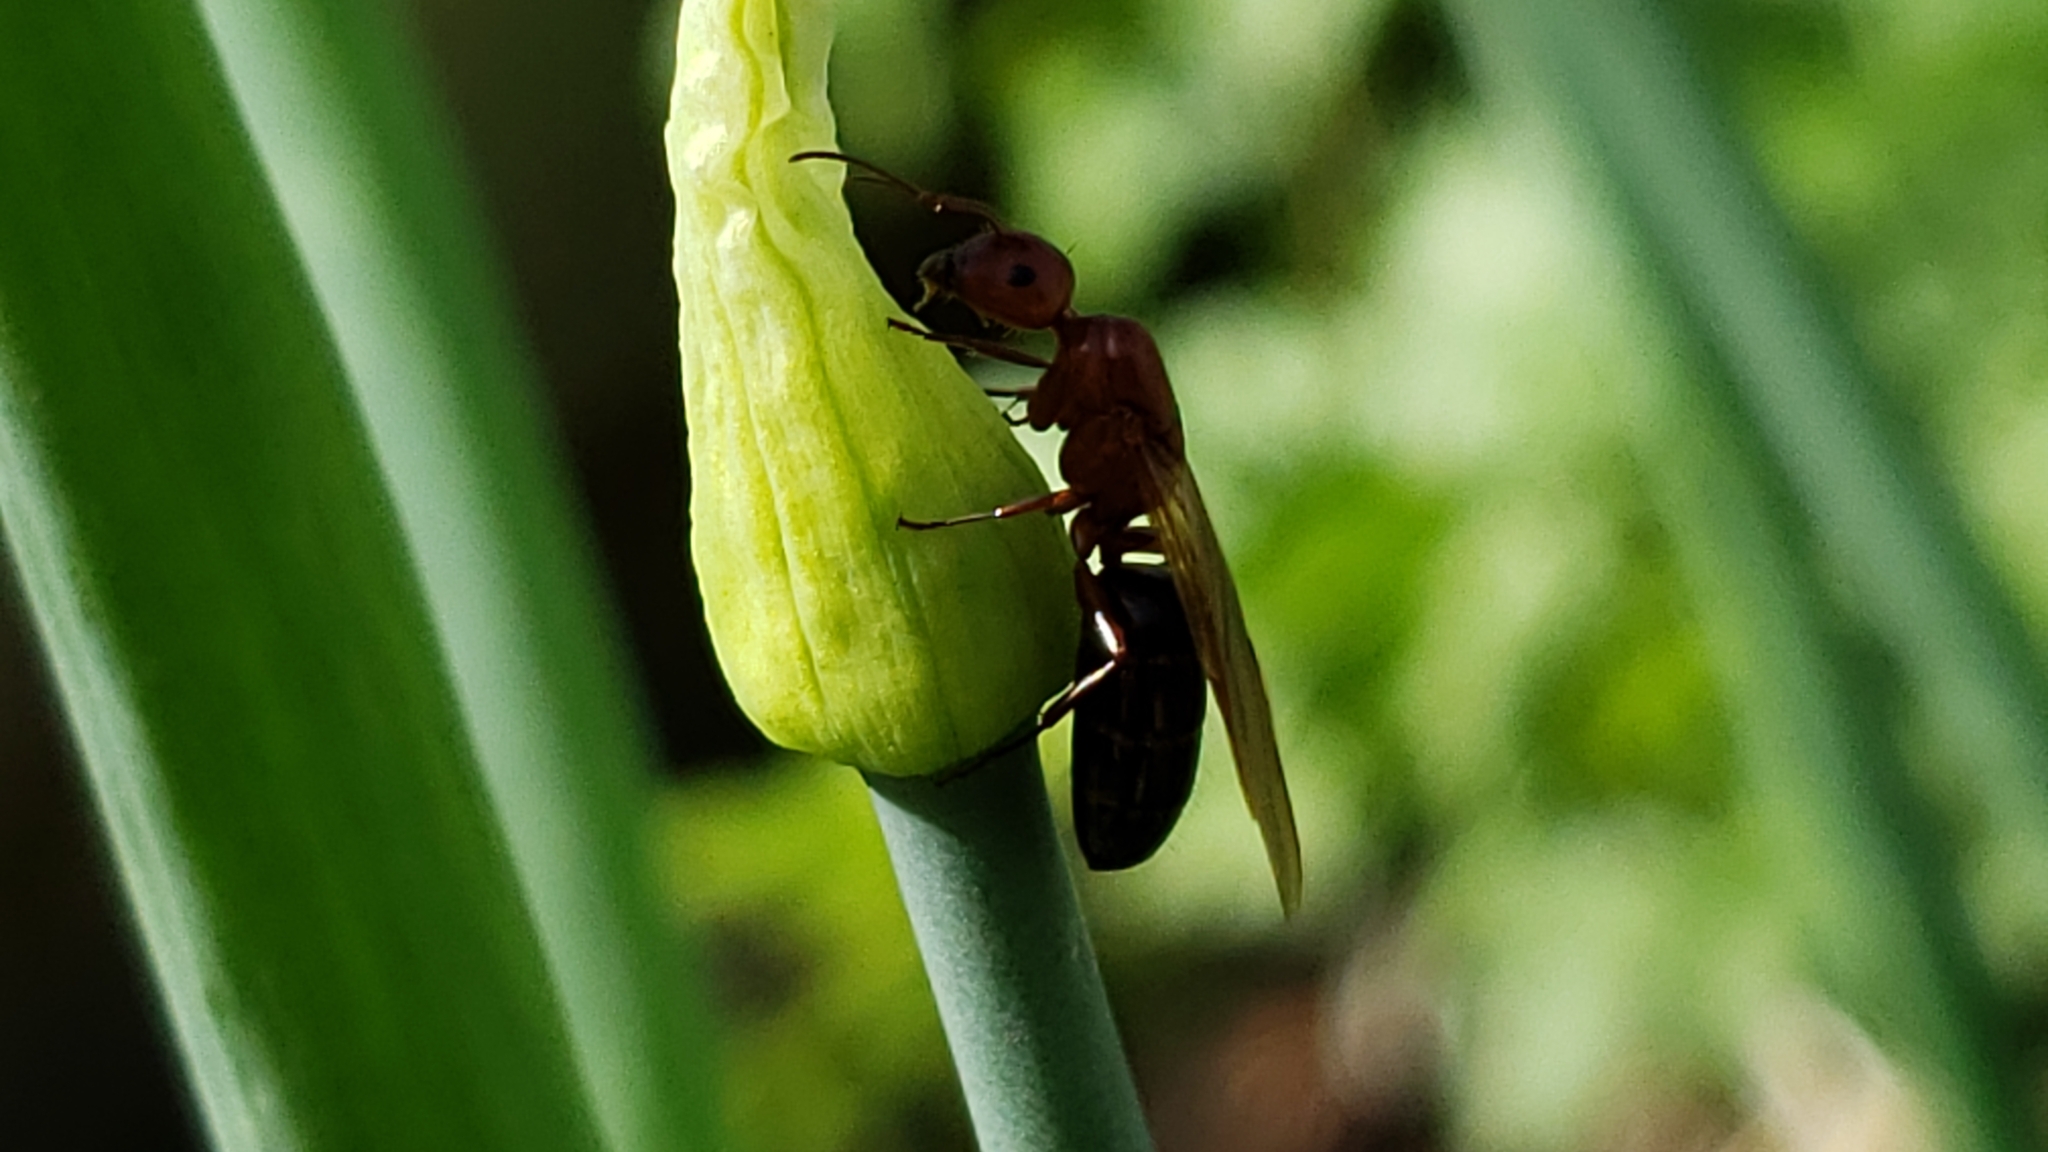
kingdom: Animalia
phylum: Arthropoda
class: Insecta
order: Hymenoptera
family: Formicidae
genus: Camponotus
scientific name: Camponotus decipiens
